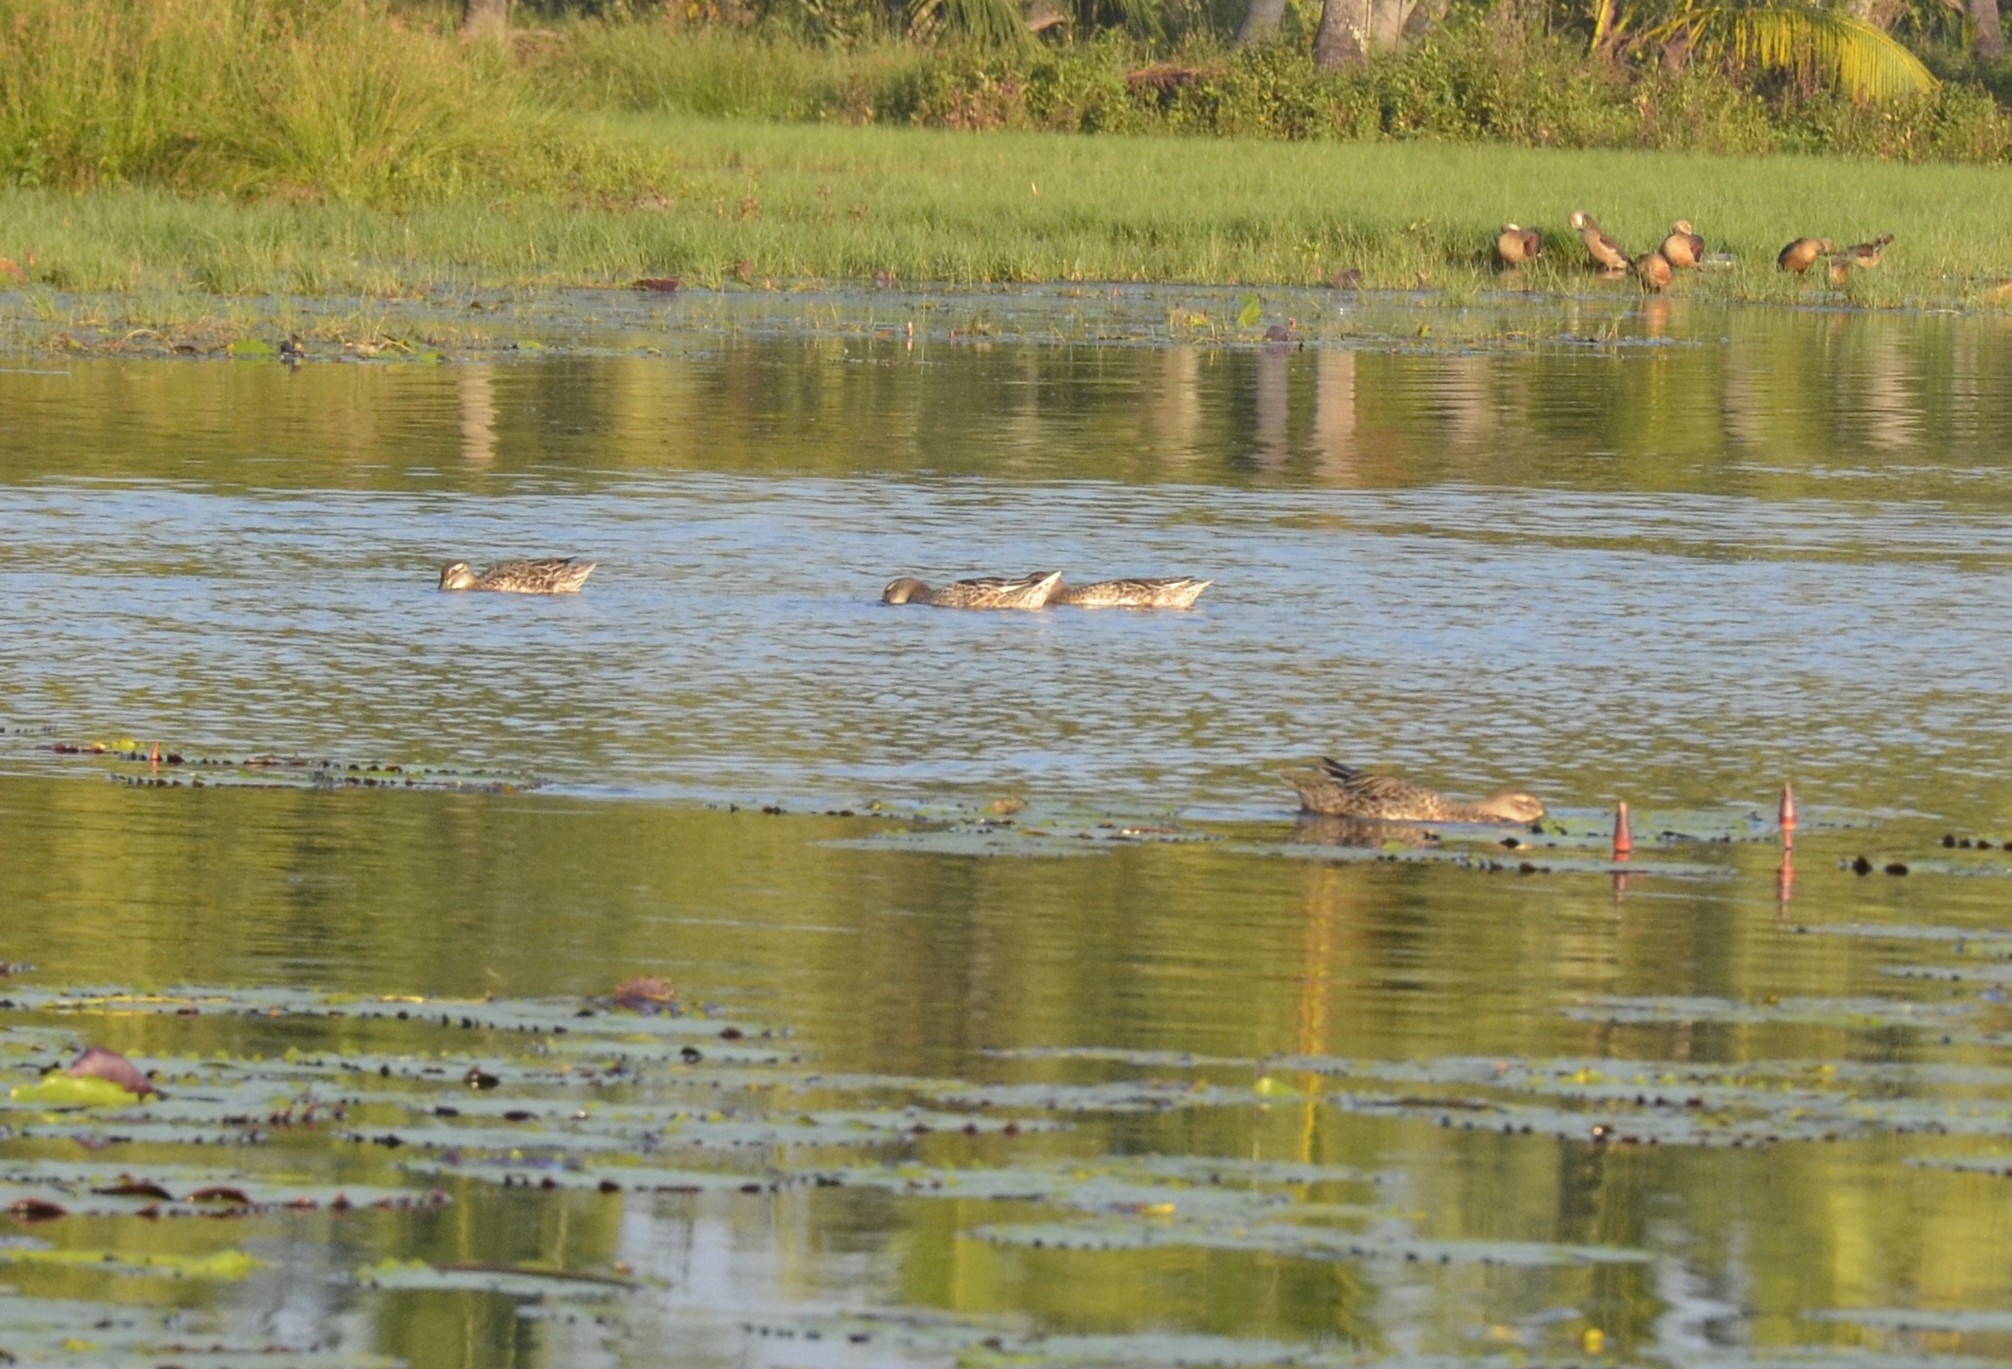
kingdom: Animalia
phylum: Chordata
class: Aves
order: Anseriformes
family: Anatidae
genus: Nettapus
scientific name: Nettapus coromandelianus
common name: Cotton pygmy-goose
